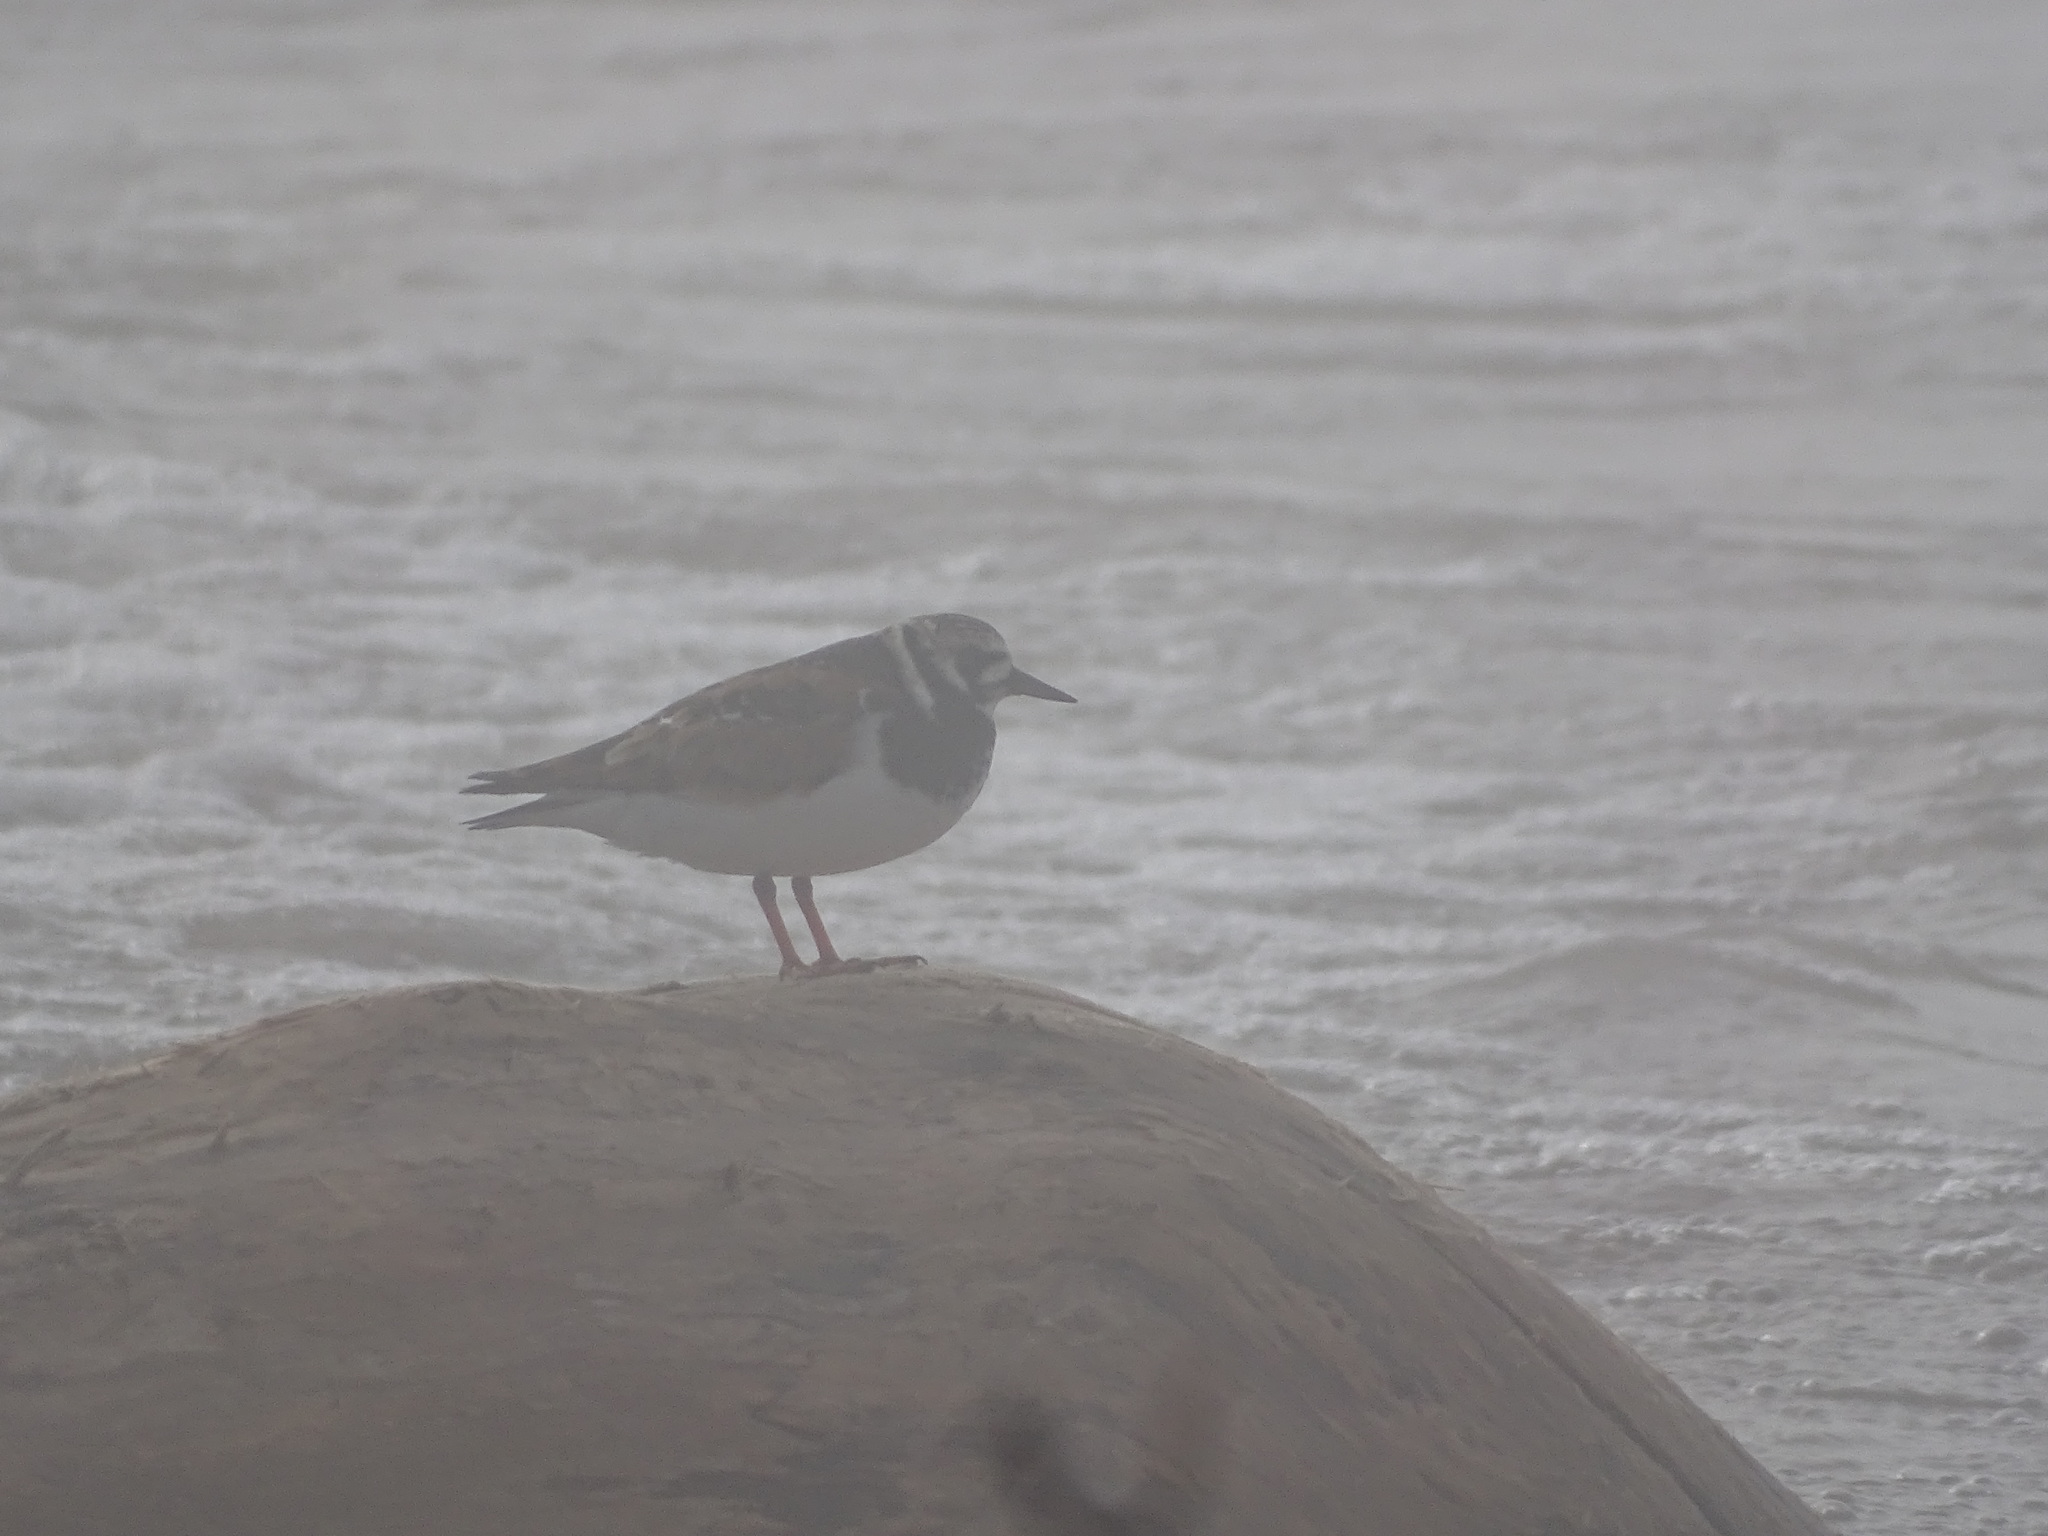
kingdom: Animalia
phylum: Chordata
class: Aves
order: Charadriiformes
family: Scolopacidae
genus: Arenaria
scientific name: Arenaria interpres
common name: Ruddy turnstone
